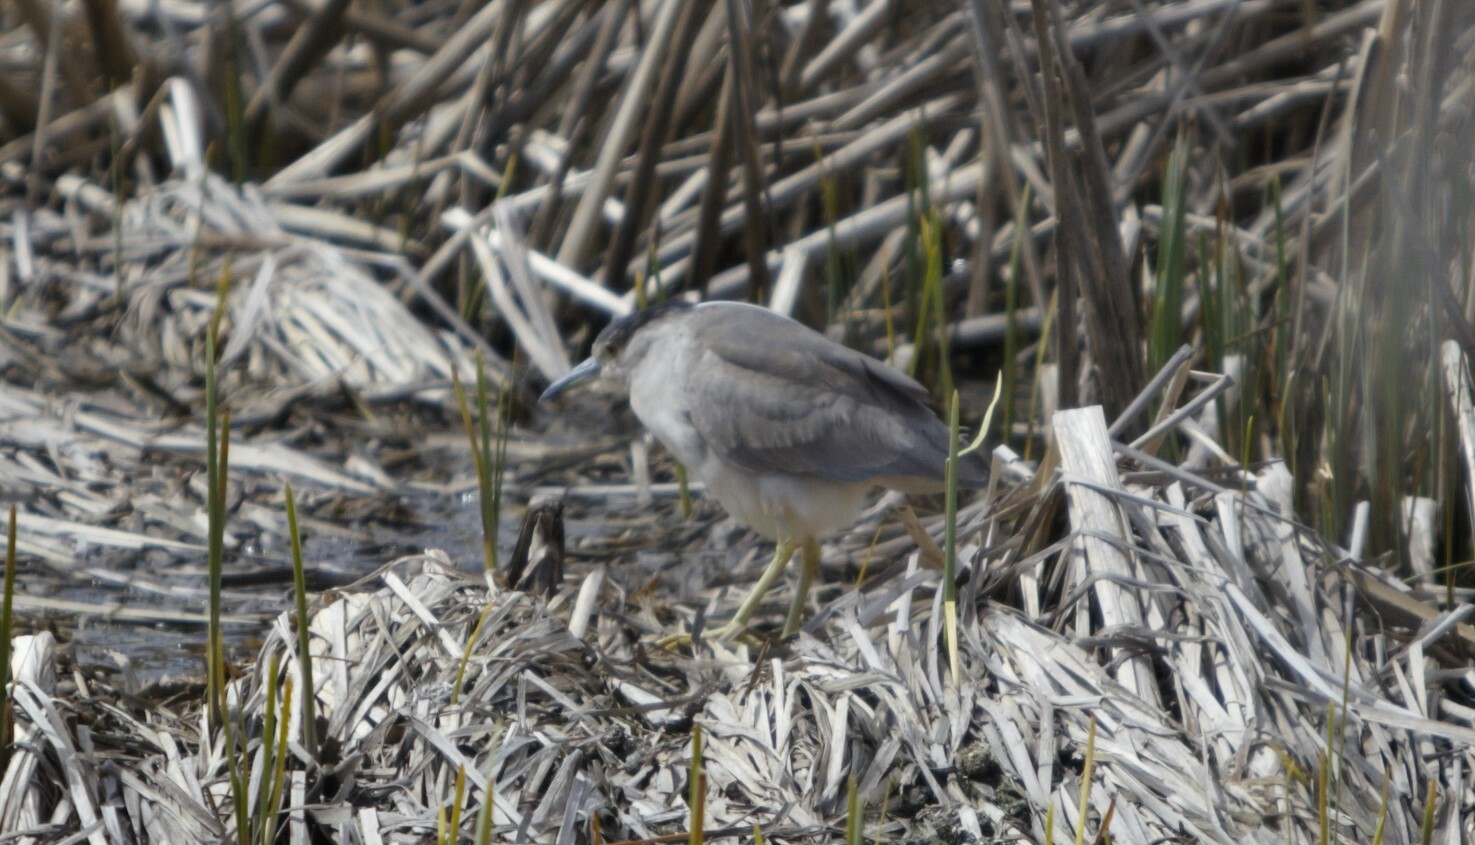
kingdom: Animalia
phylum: Chordata
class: Aves
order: Pelecaniformes
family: Ardeidae
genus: Nycticorax
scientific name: Nycticorax nycticorax
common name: Black-crowned night heron
